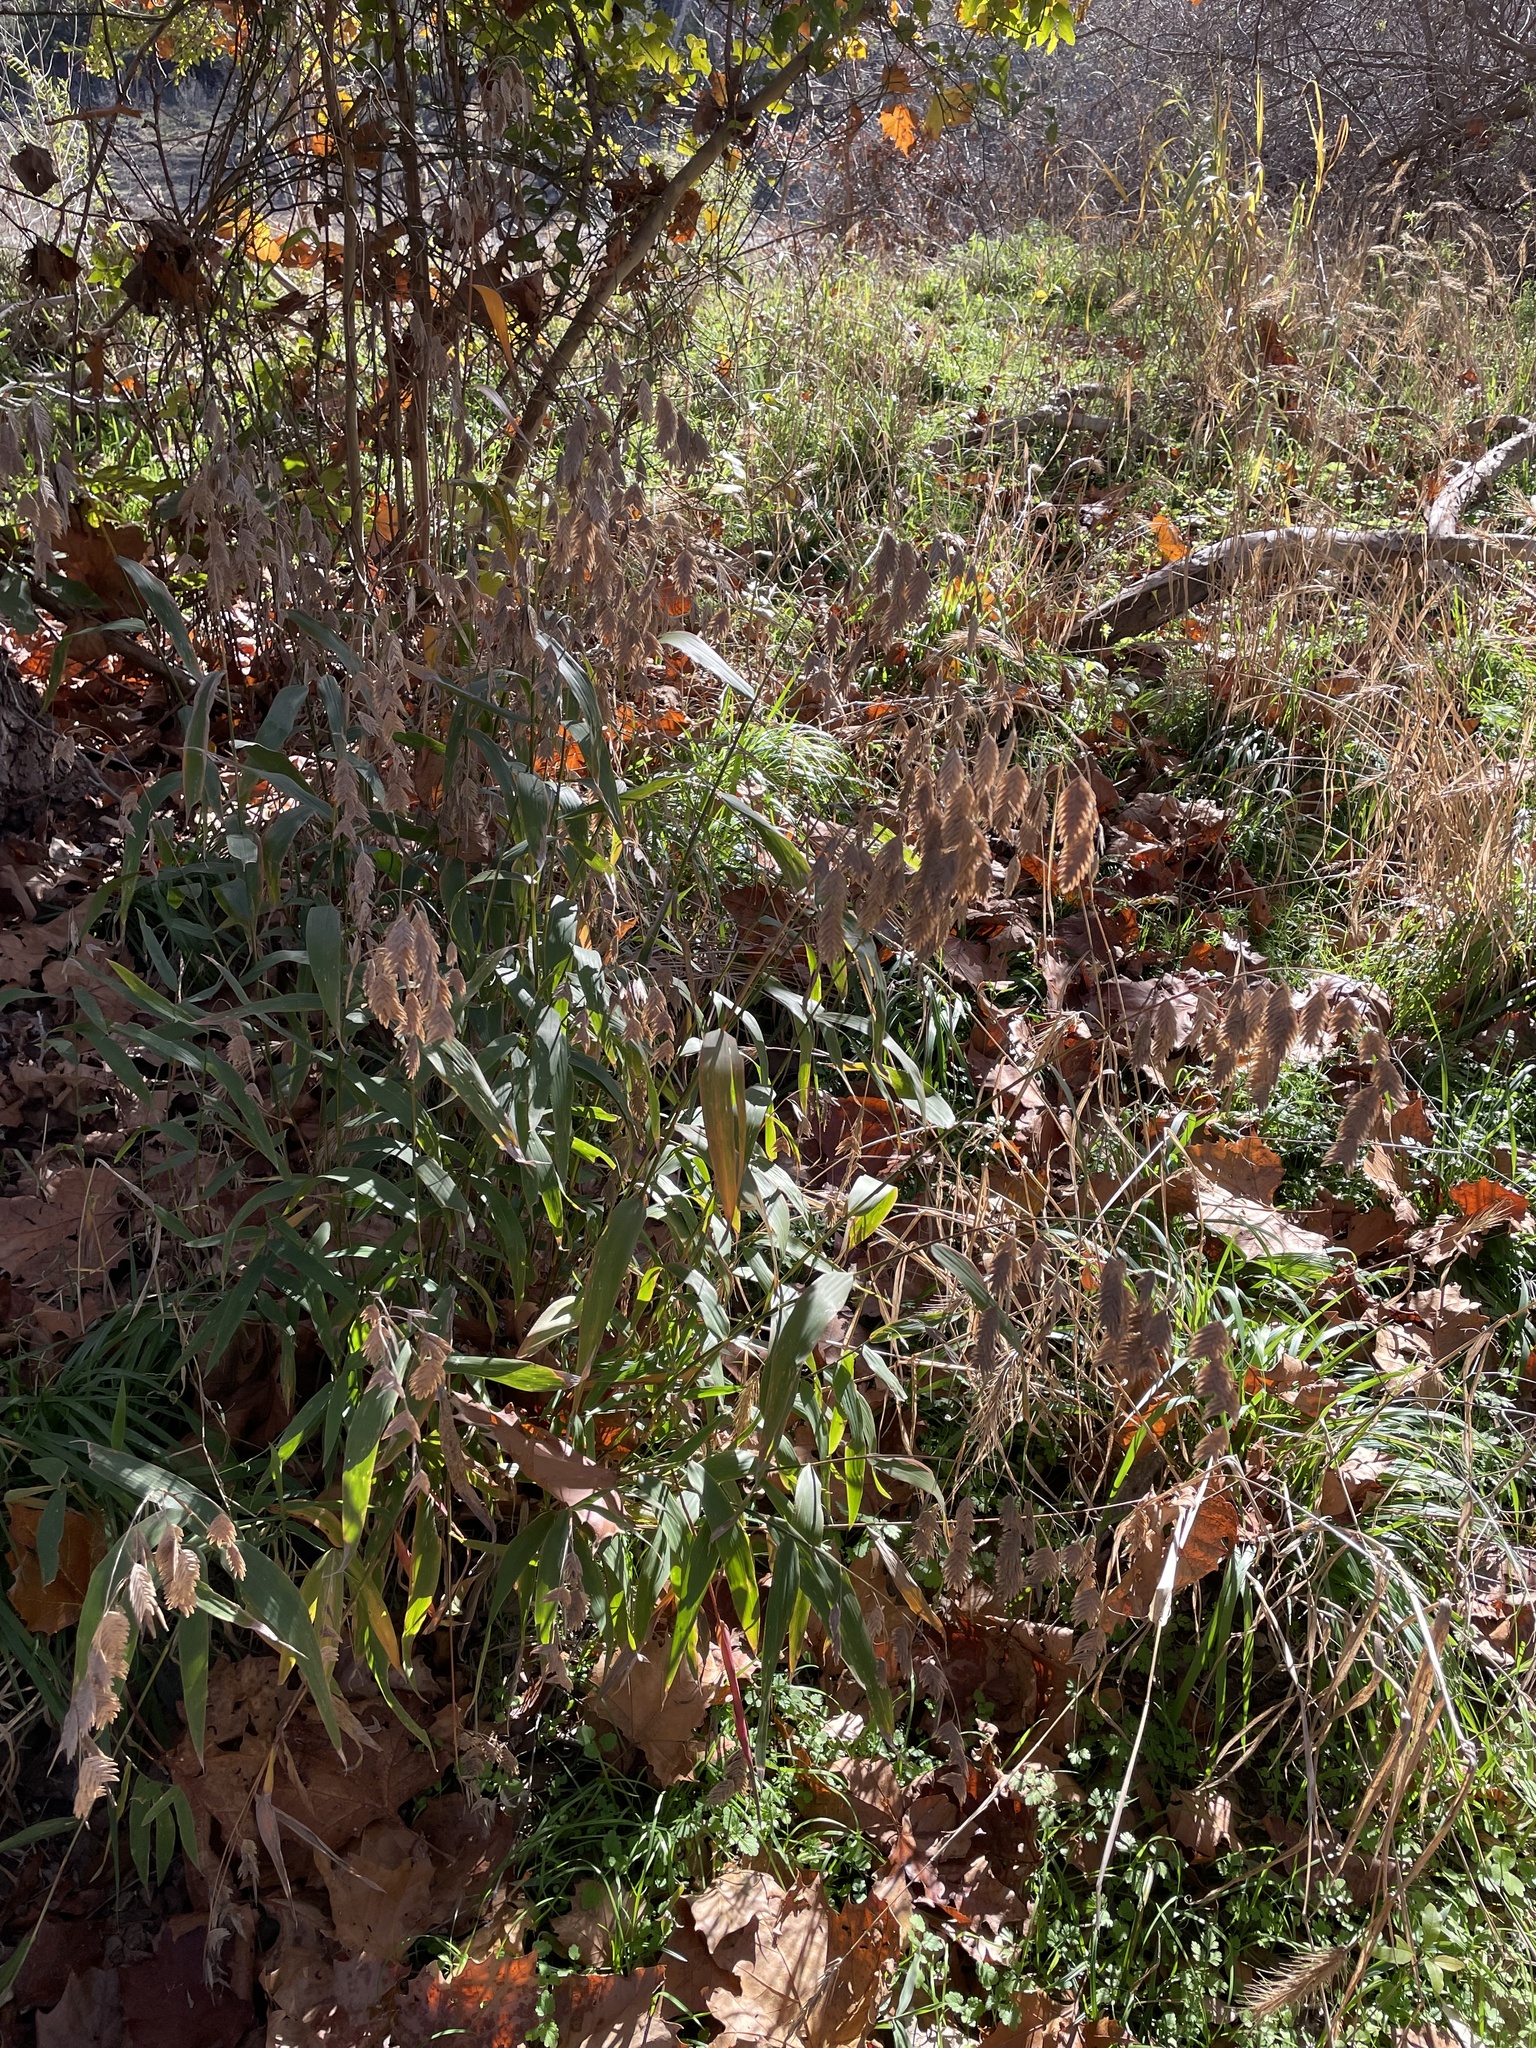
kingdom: Plantae
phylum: Tracheophyta
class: Liliopsida
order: Poales
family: Poaceae
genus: Chasmanthium
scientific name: Chasmanthium latifolium
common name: Broad-leaved chasmanthium
